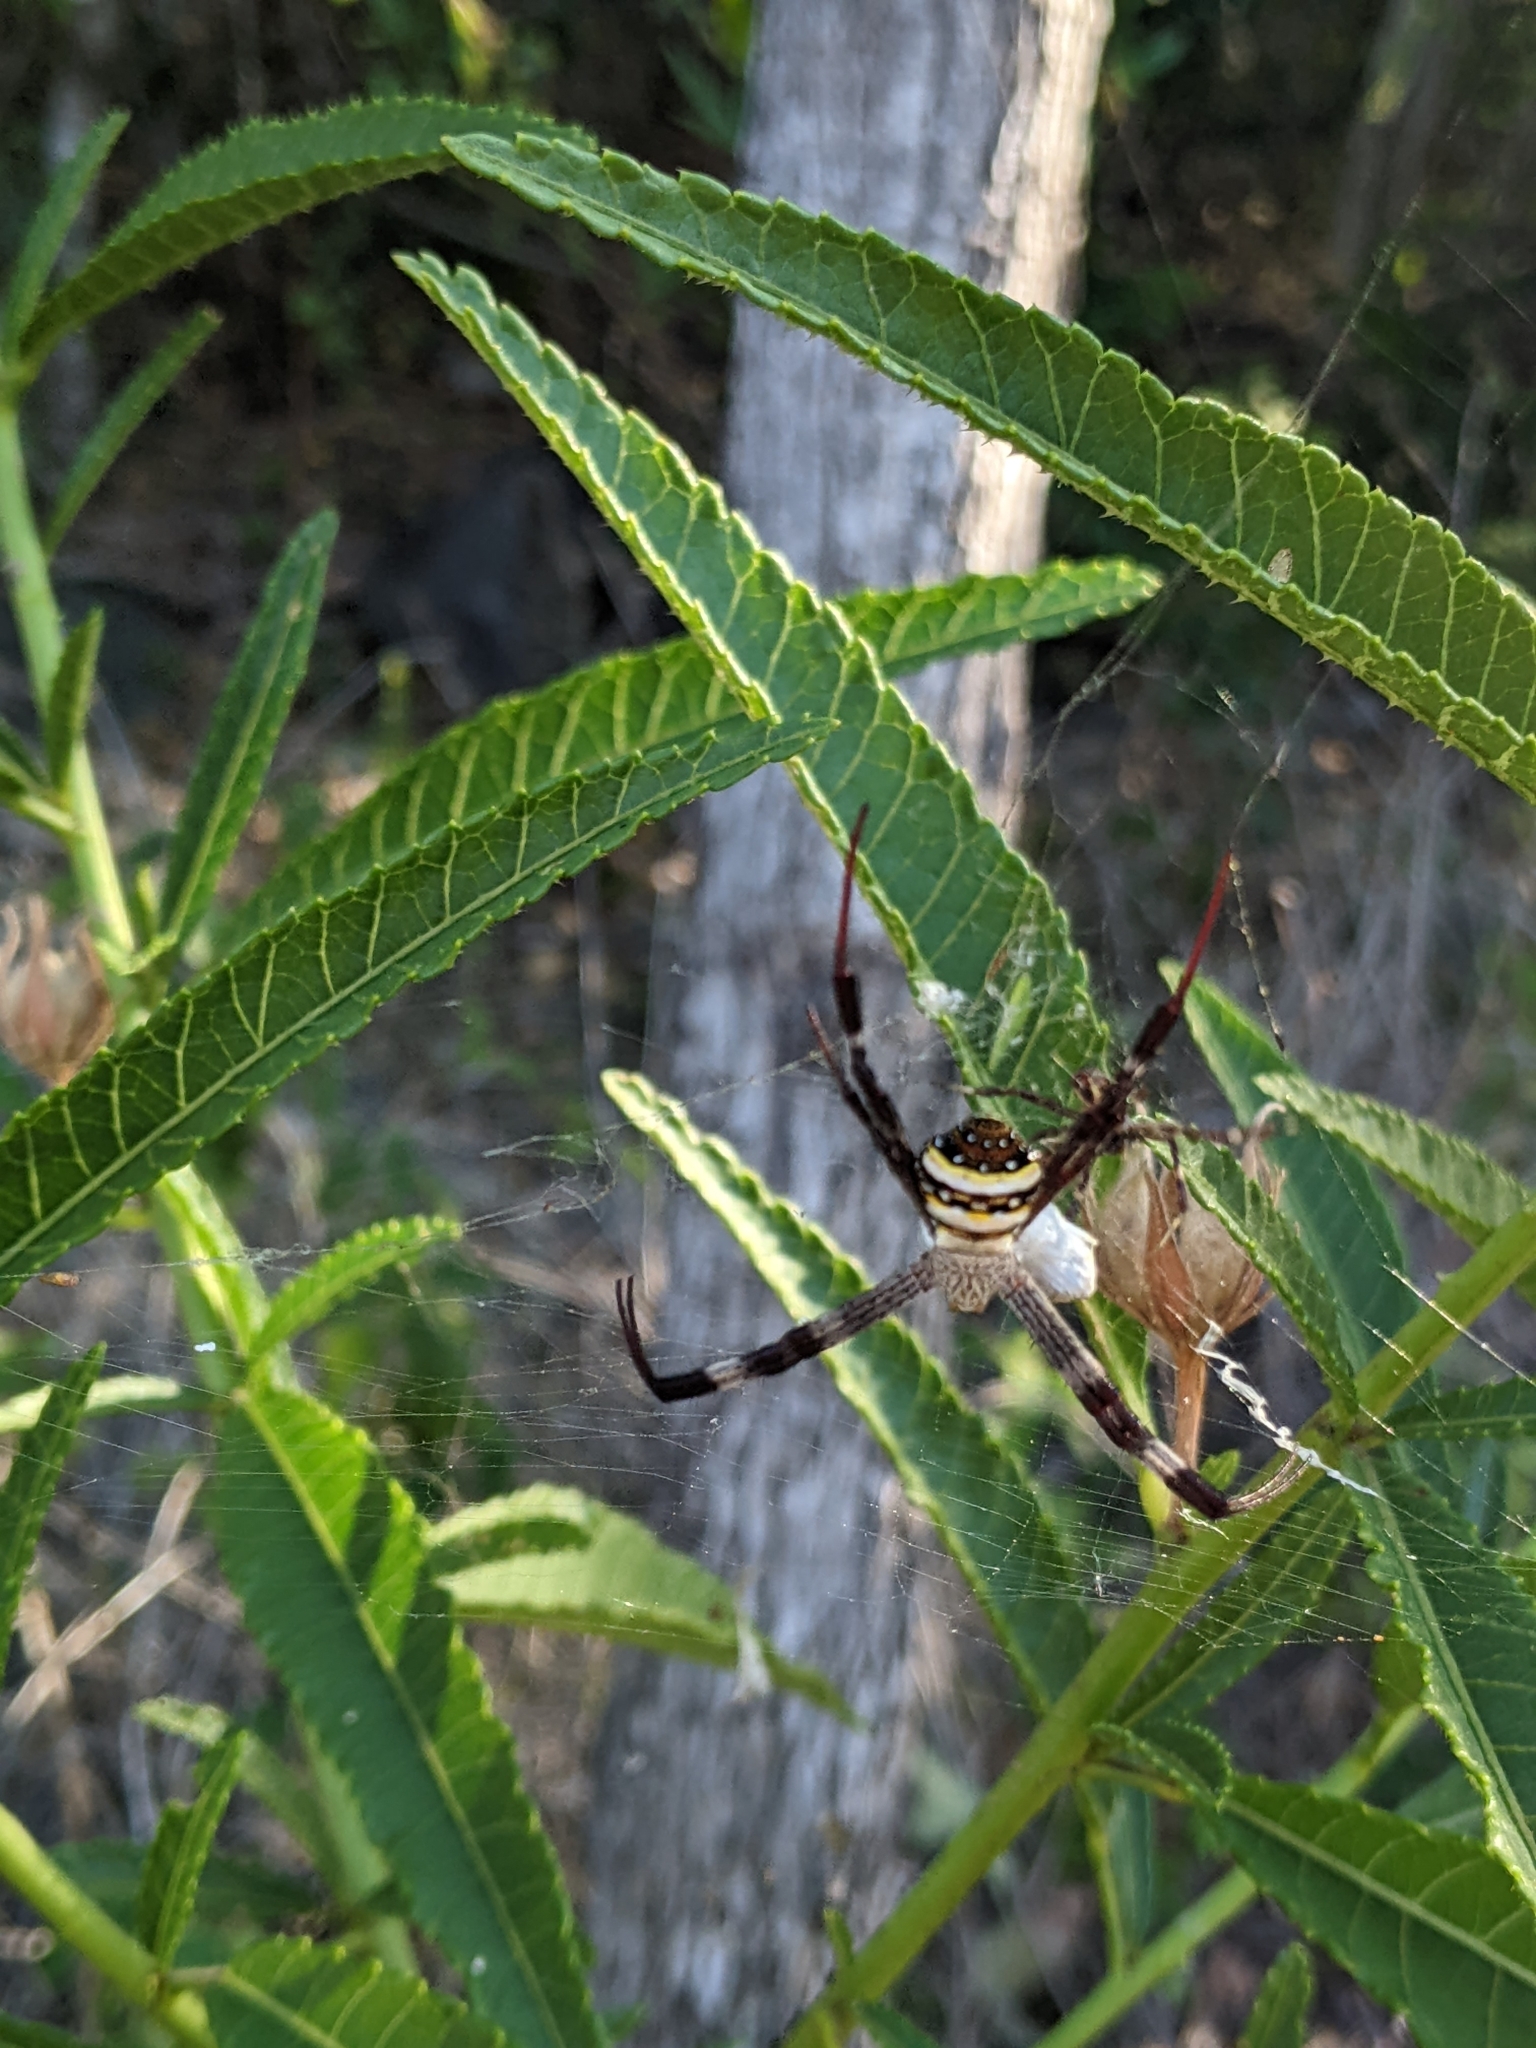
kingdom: Animalia
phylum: Arthropoda
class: Arachnida
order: Araneae
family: Araneidae
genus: Argiope
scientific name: Argiope aetherea
